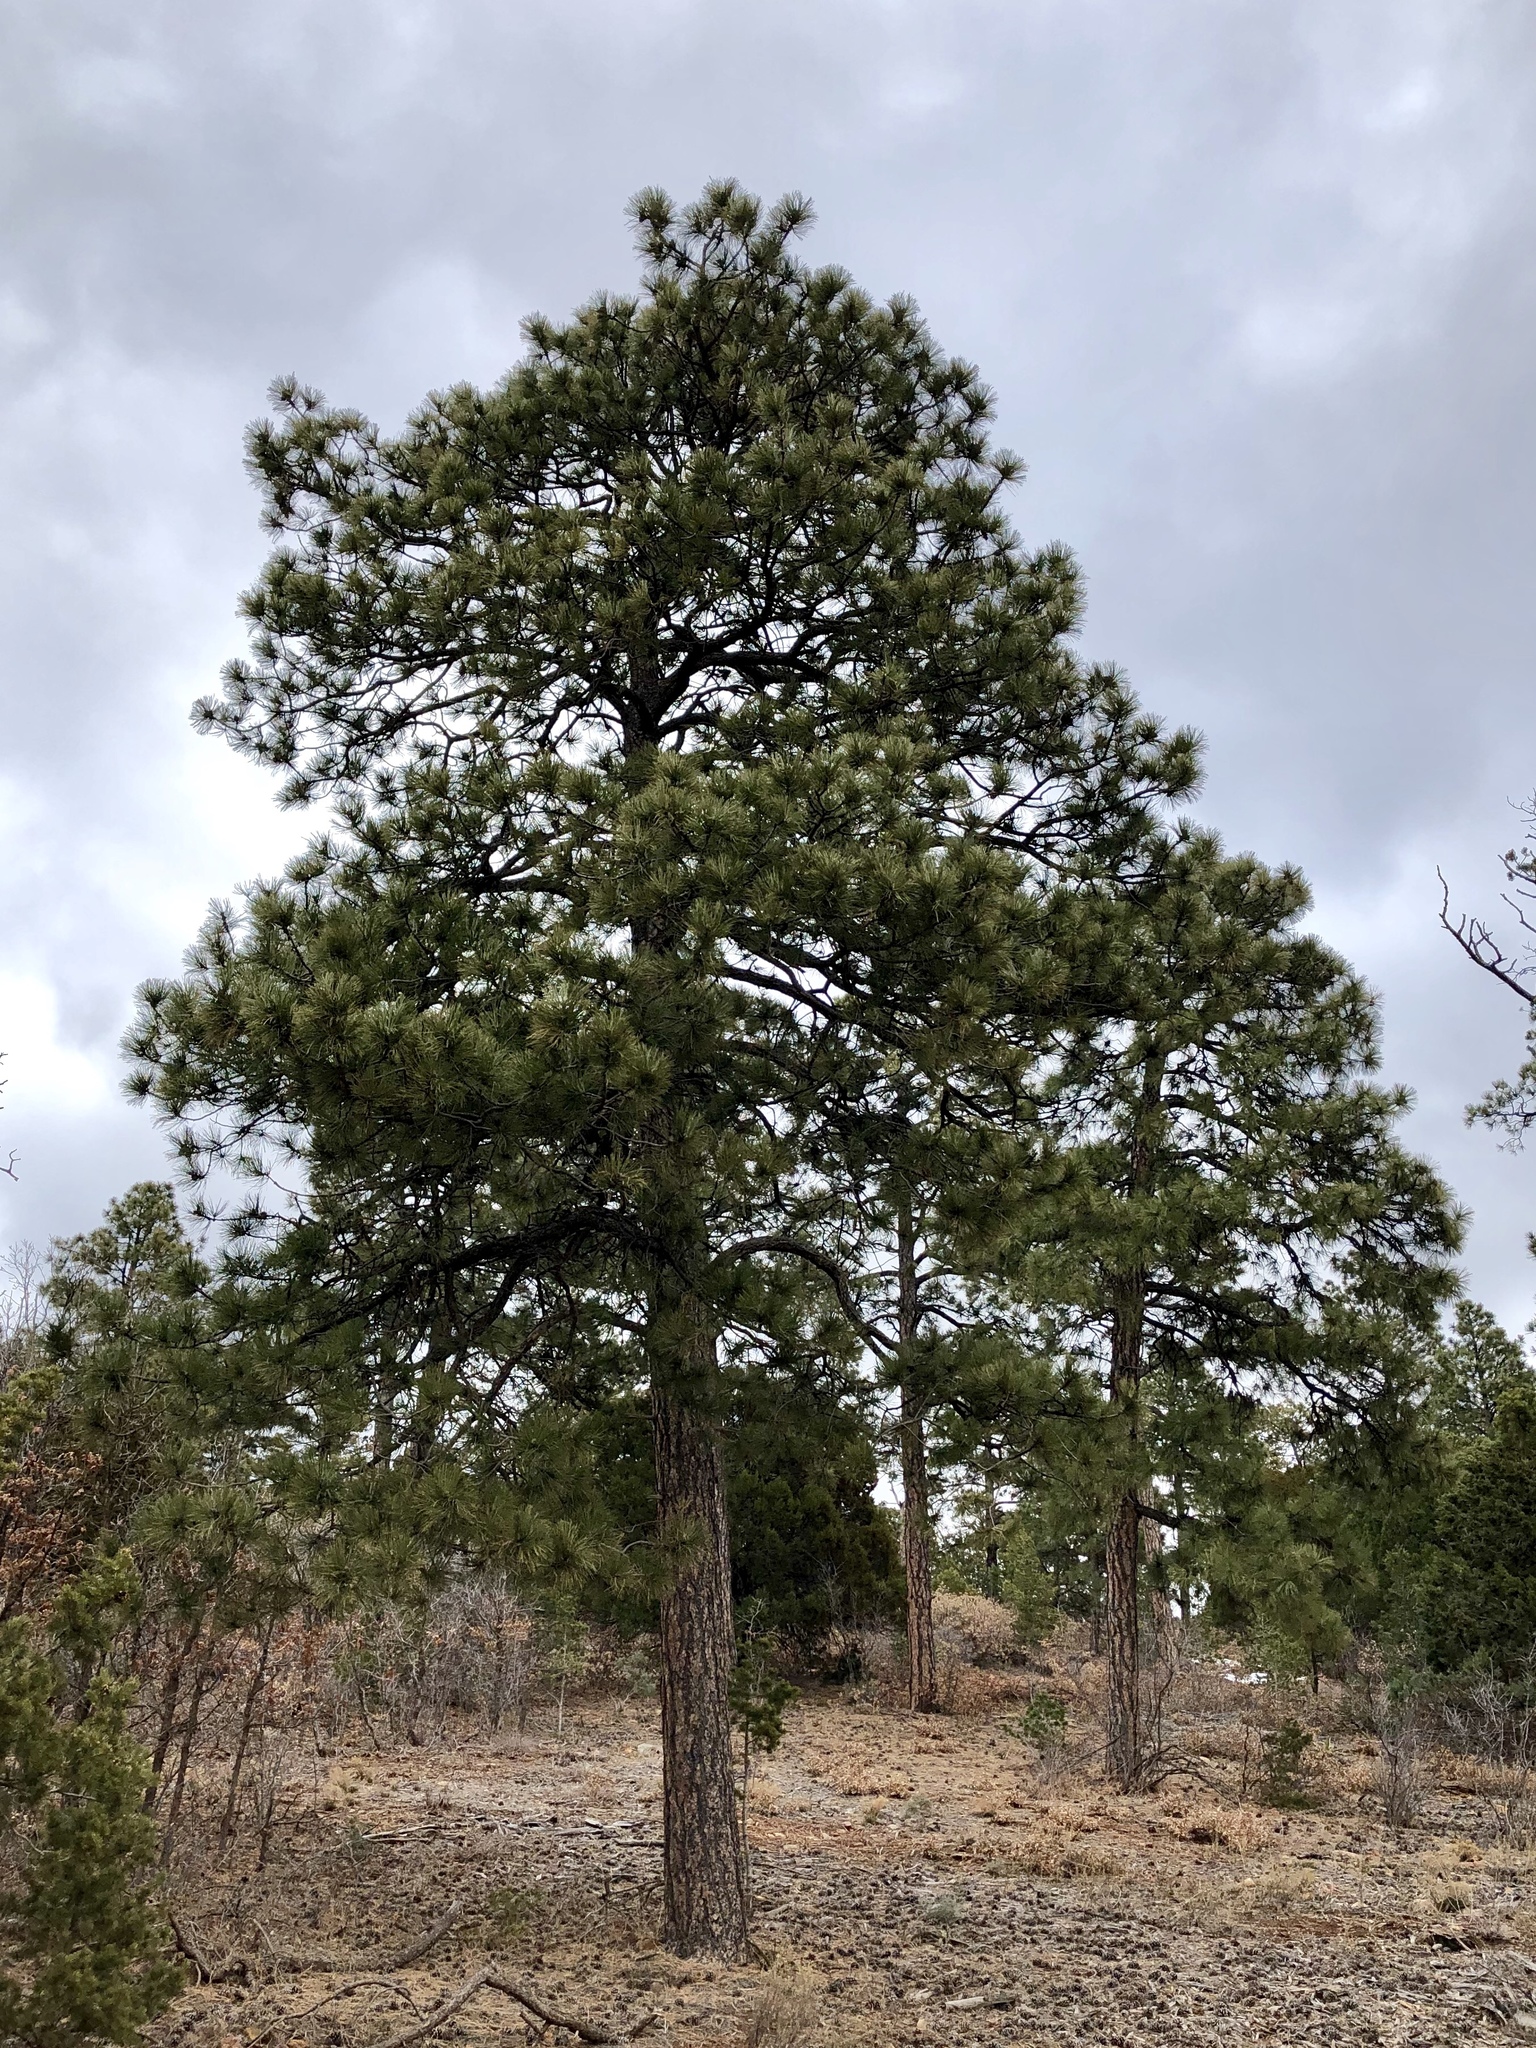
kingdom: Plantae
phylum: Tracheophyta
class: Pinopsida
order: Pinales
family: Pinaceae
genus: Pinus
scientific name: Pinus ponderosa
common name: Western yellow-pine
